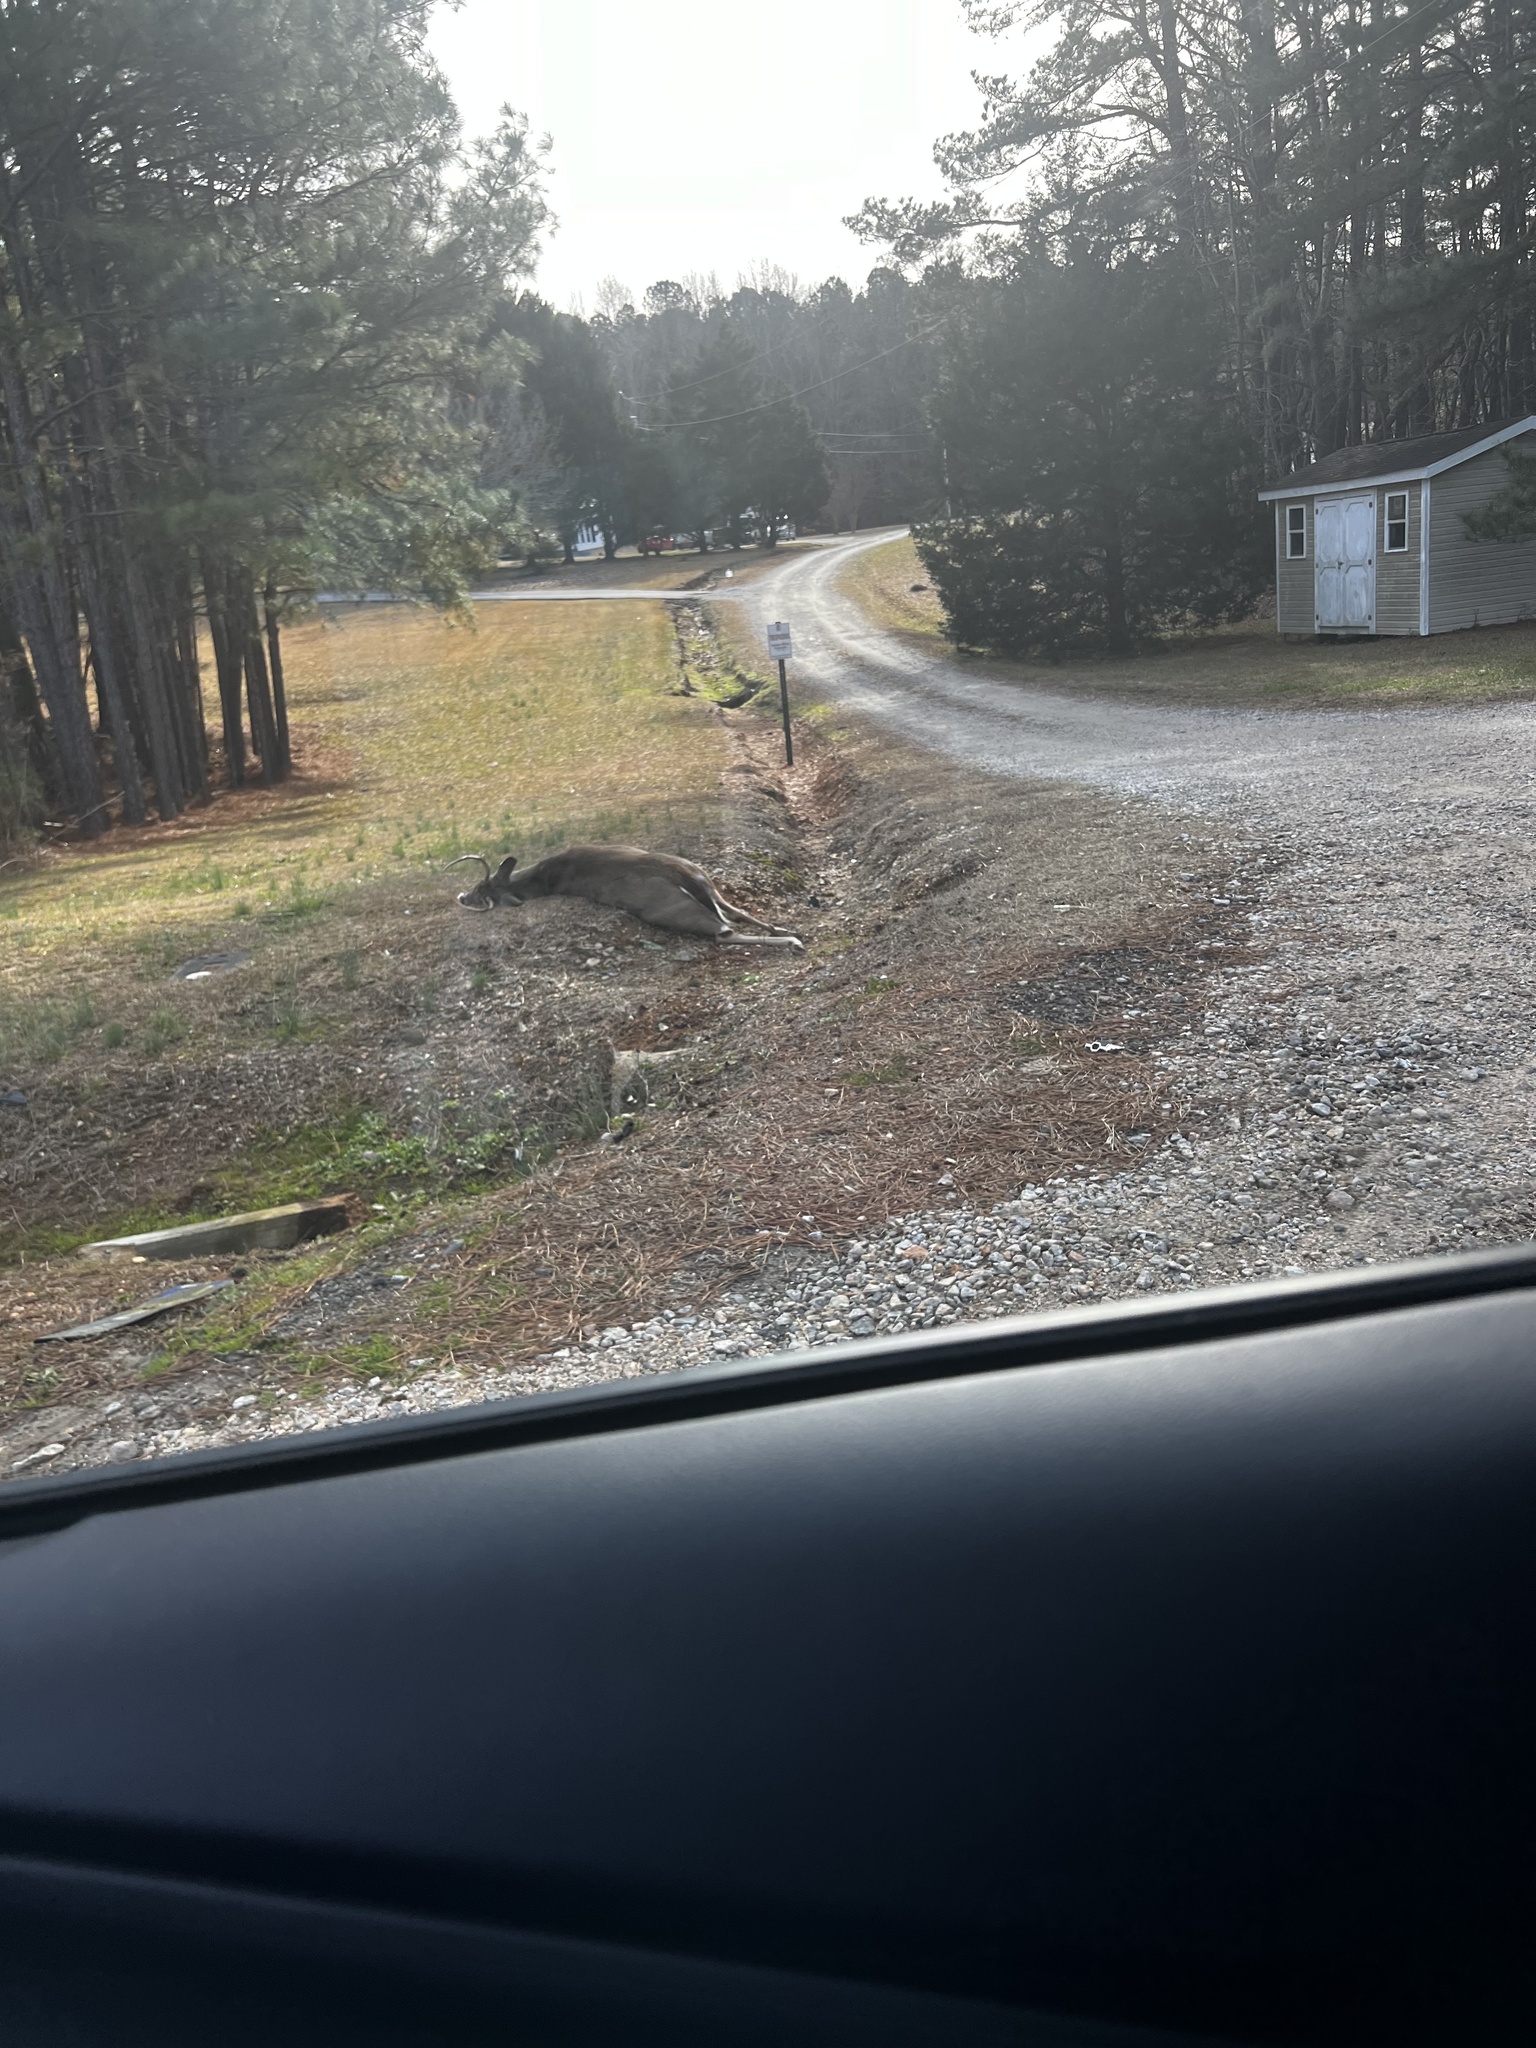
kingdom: Animalia
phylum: Chordata
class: Mammalia
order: Artiodactyla
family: Cervidae
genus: Odocoileus
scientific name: Odocoileus virginianus
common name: White-tailed deer
